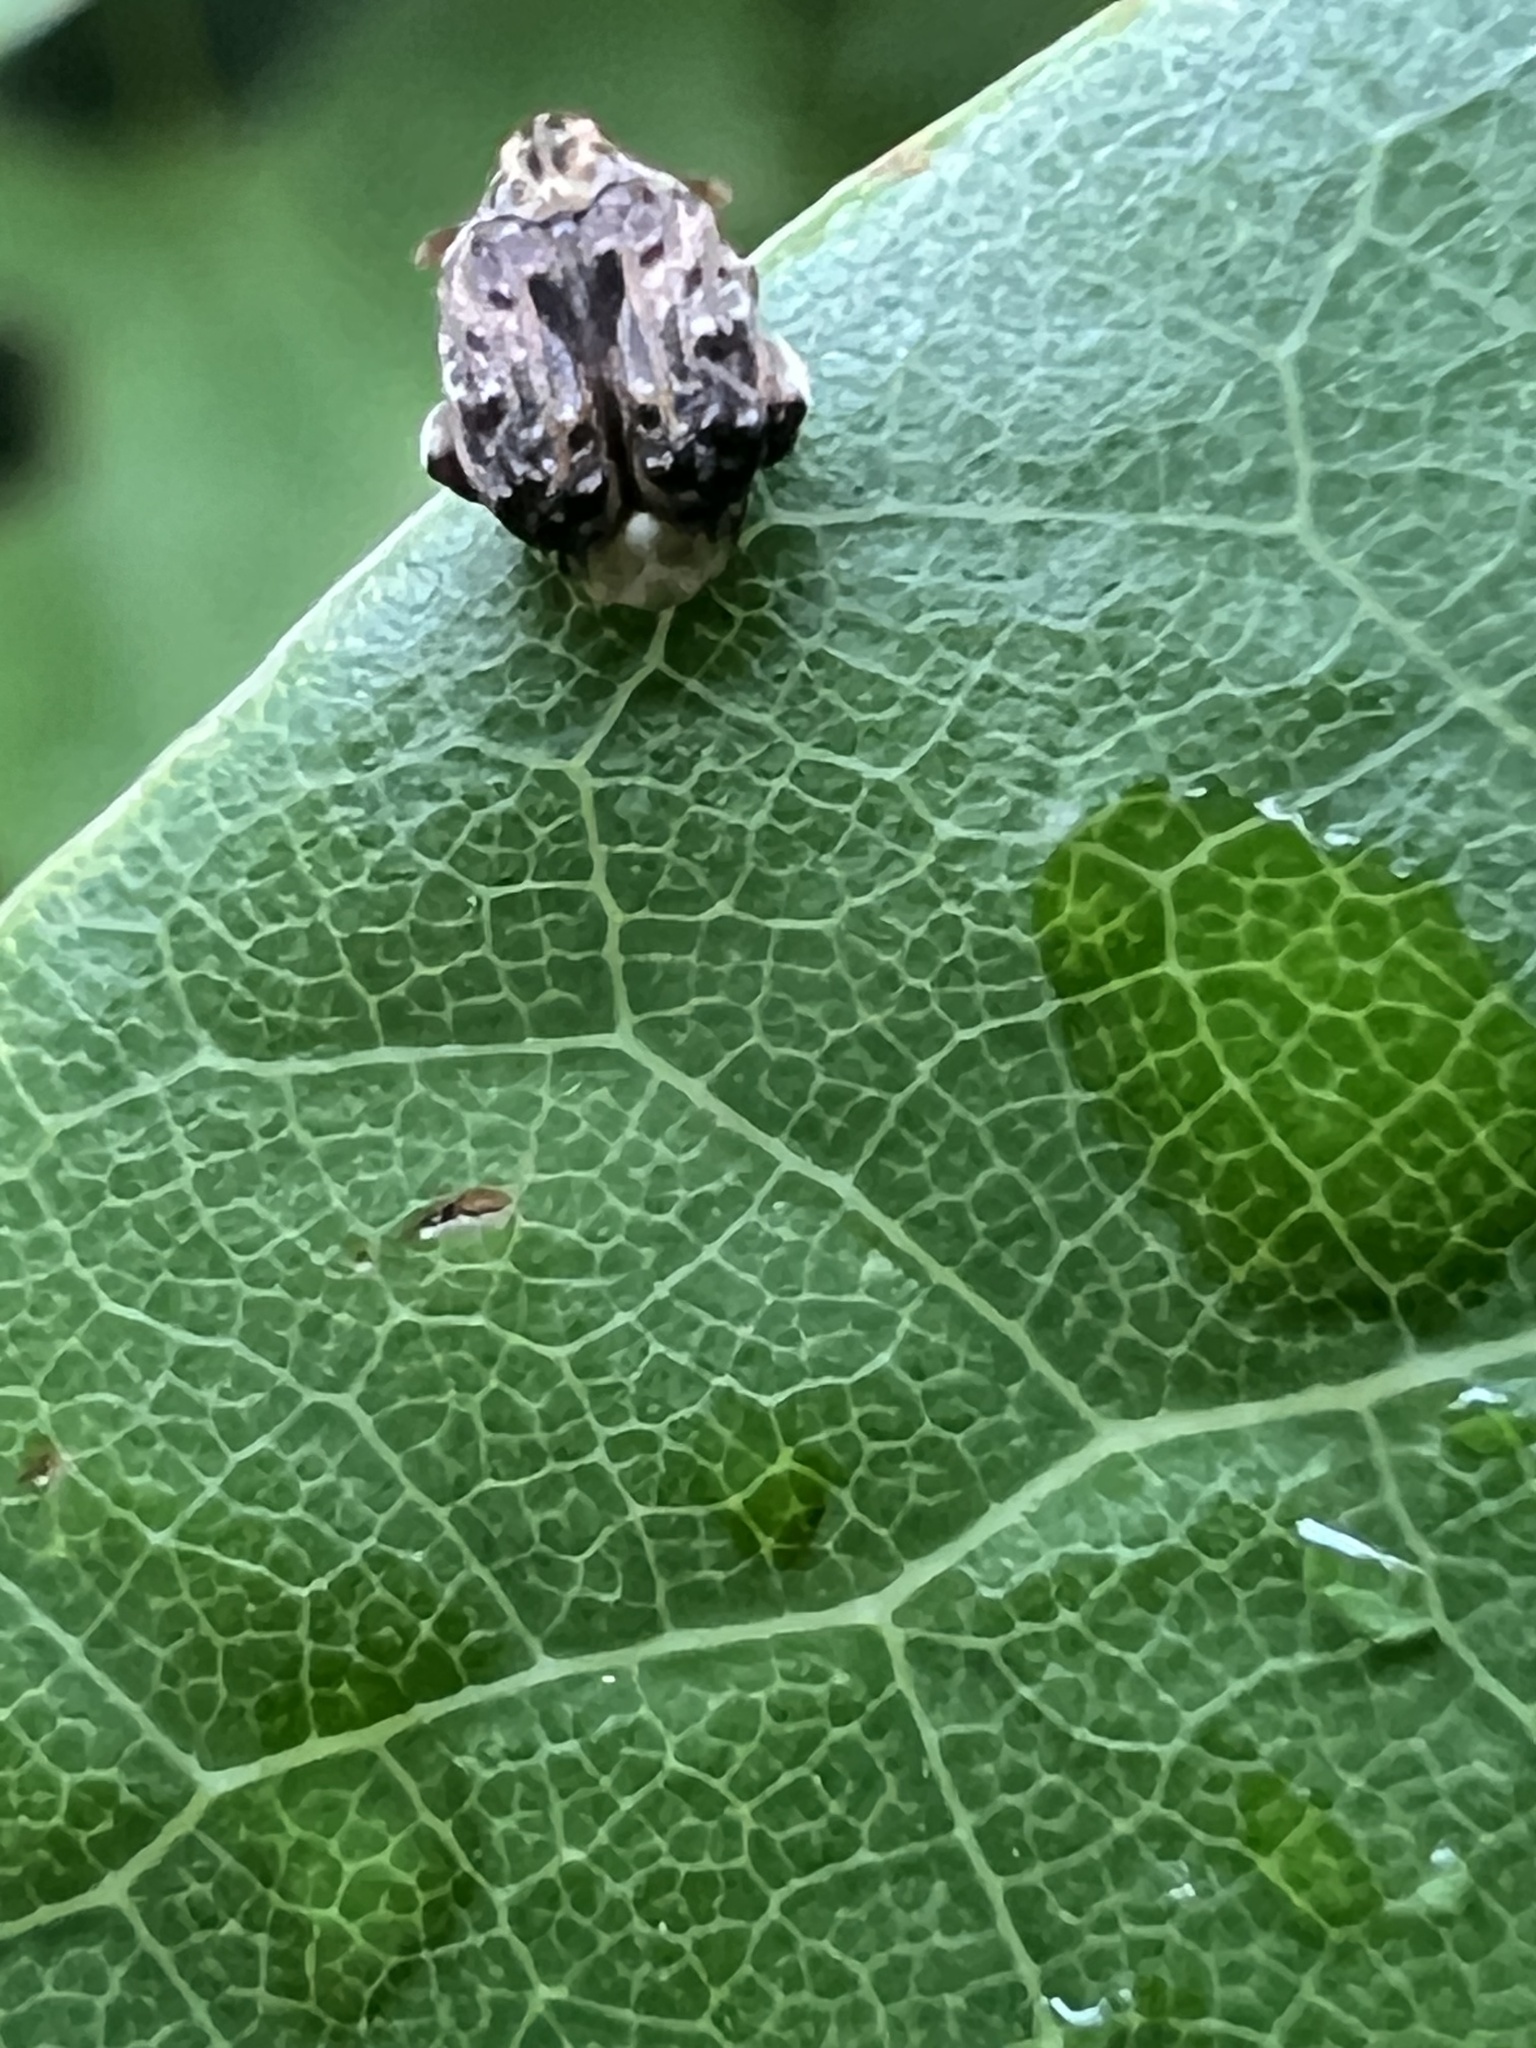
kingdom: Animalia
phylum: Arthropoda
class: Insecta
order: Coleoptera
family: Chrysomelidae
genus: Gibbobruchus
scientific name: Gibbobruchus mimus
